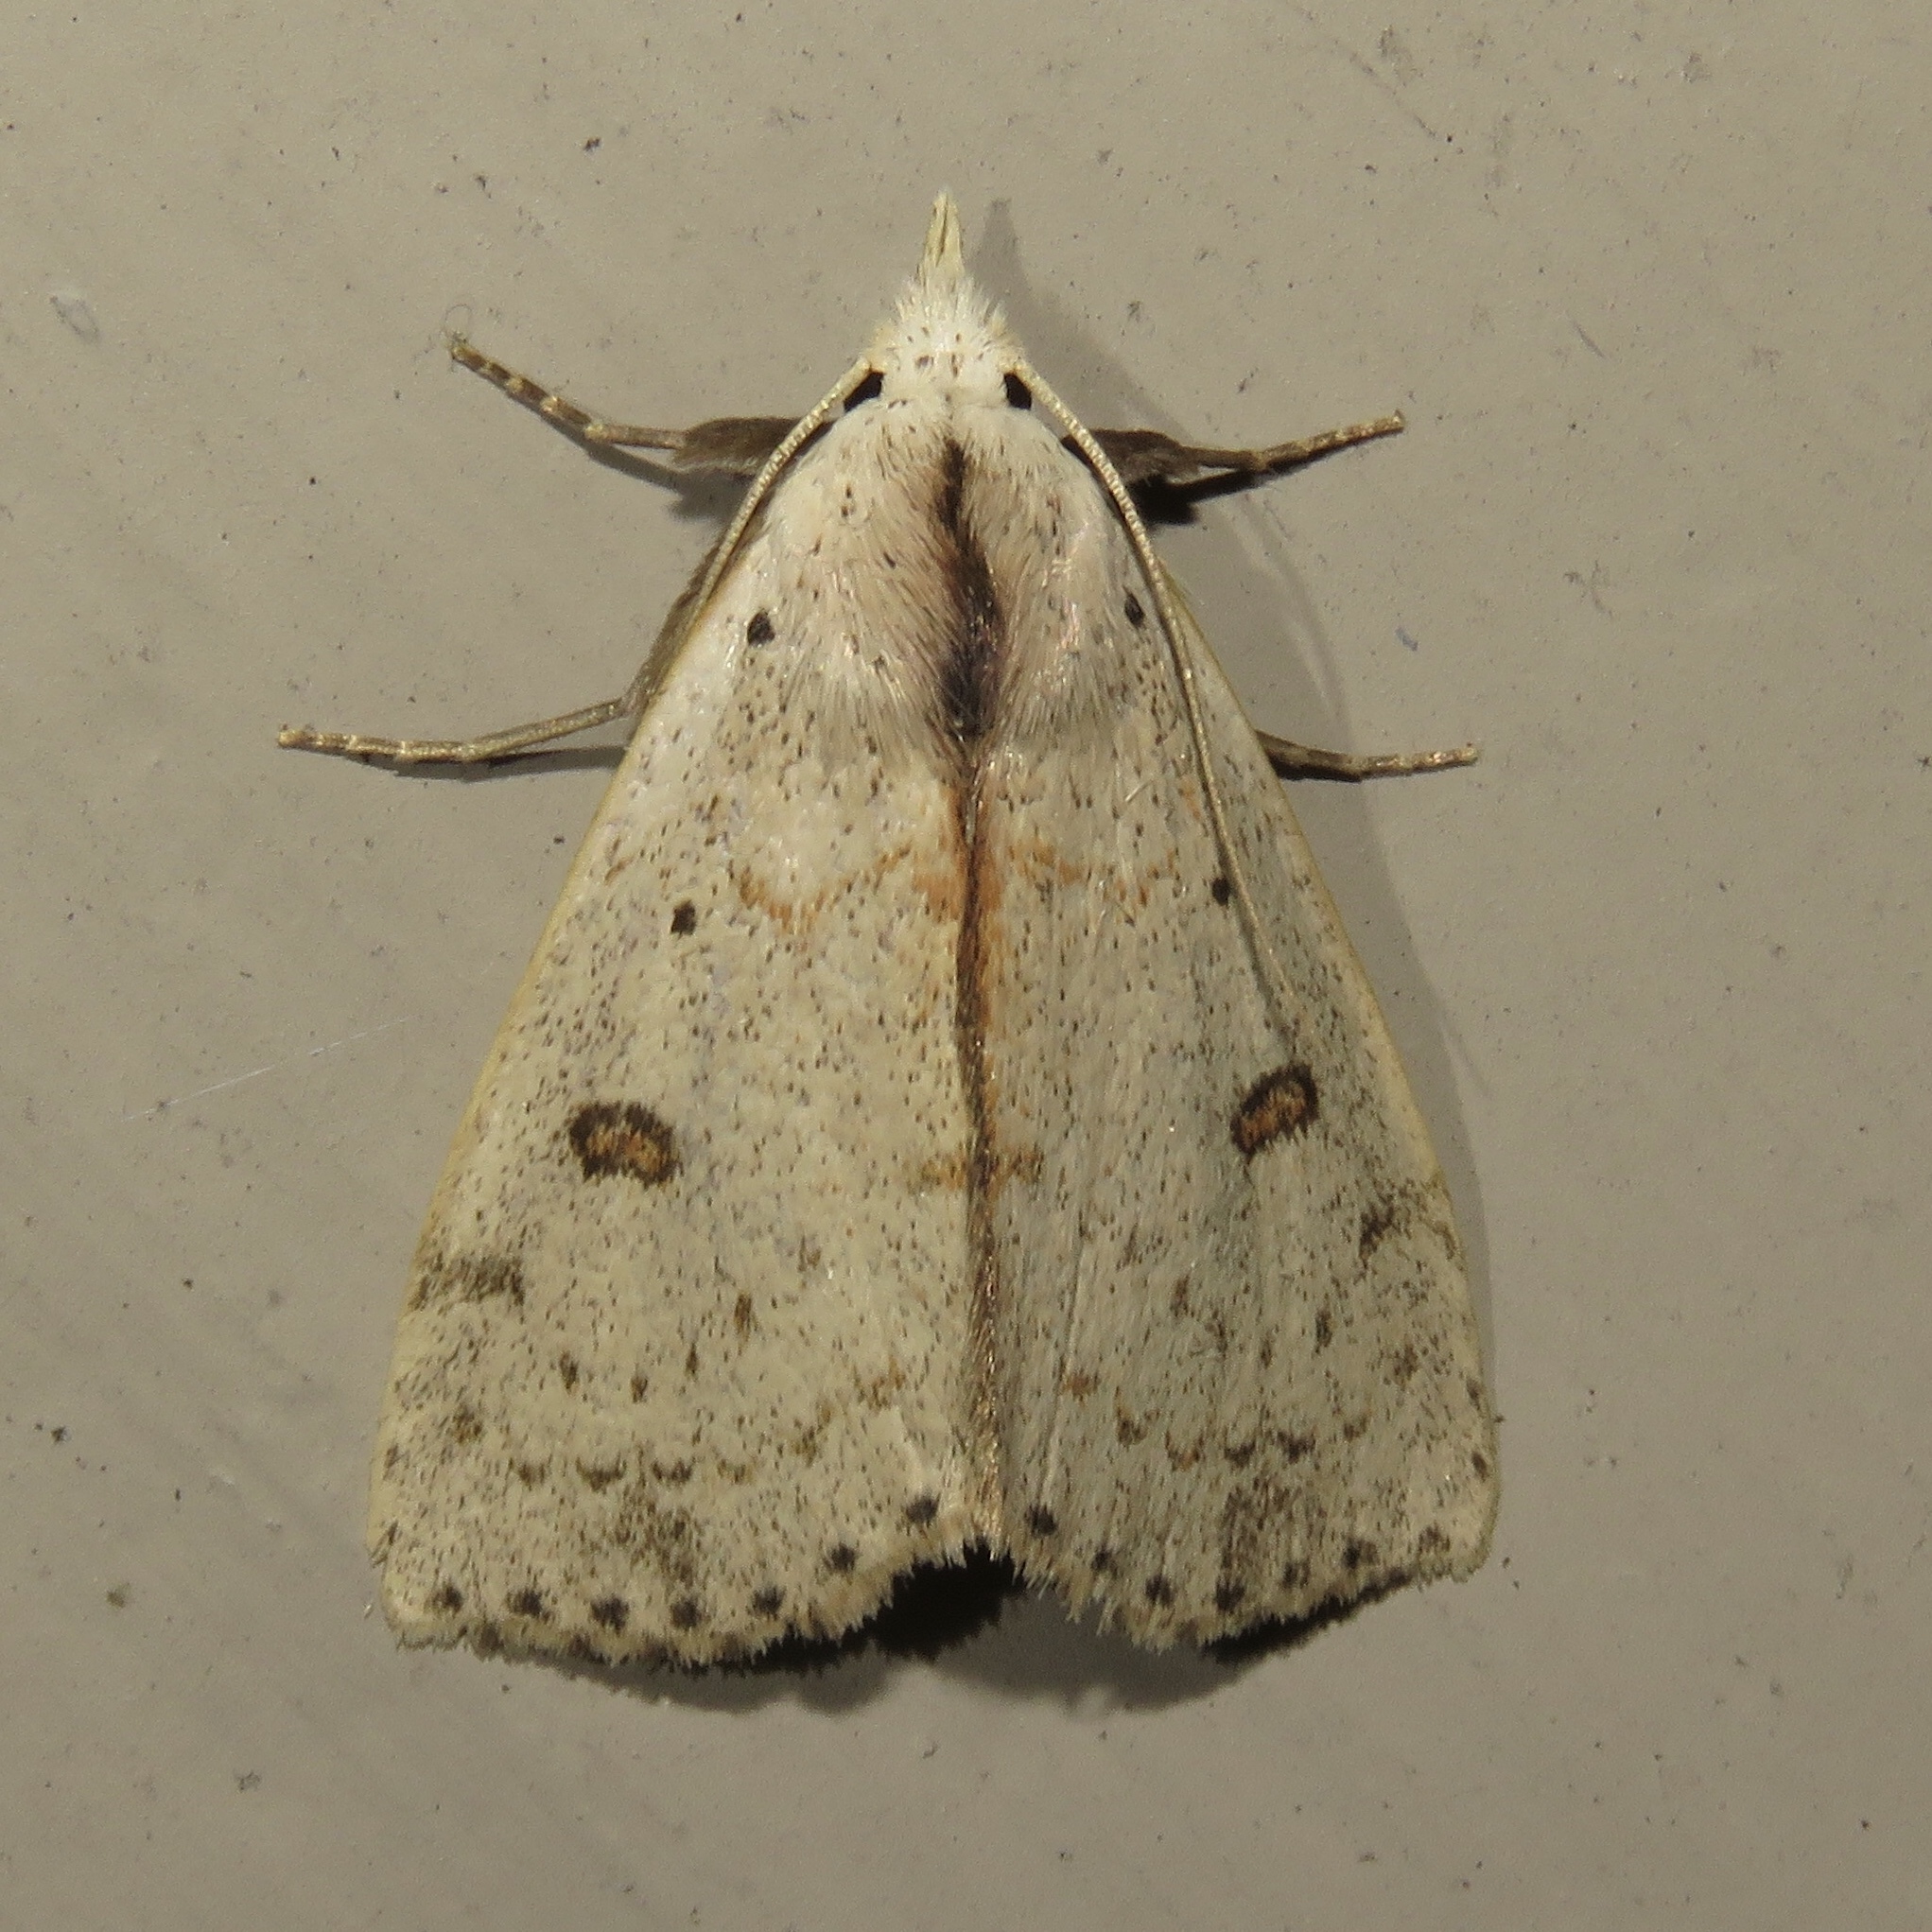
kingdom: Animalia
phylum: Arthropoda
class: Insecta
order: Lepidoptera
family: Erebidae
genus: Scolecocampa
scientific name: Scolecocampa liburna
